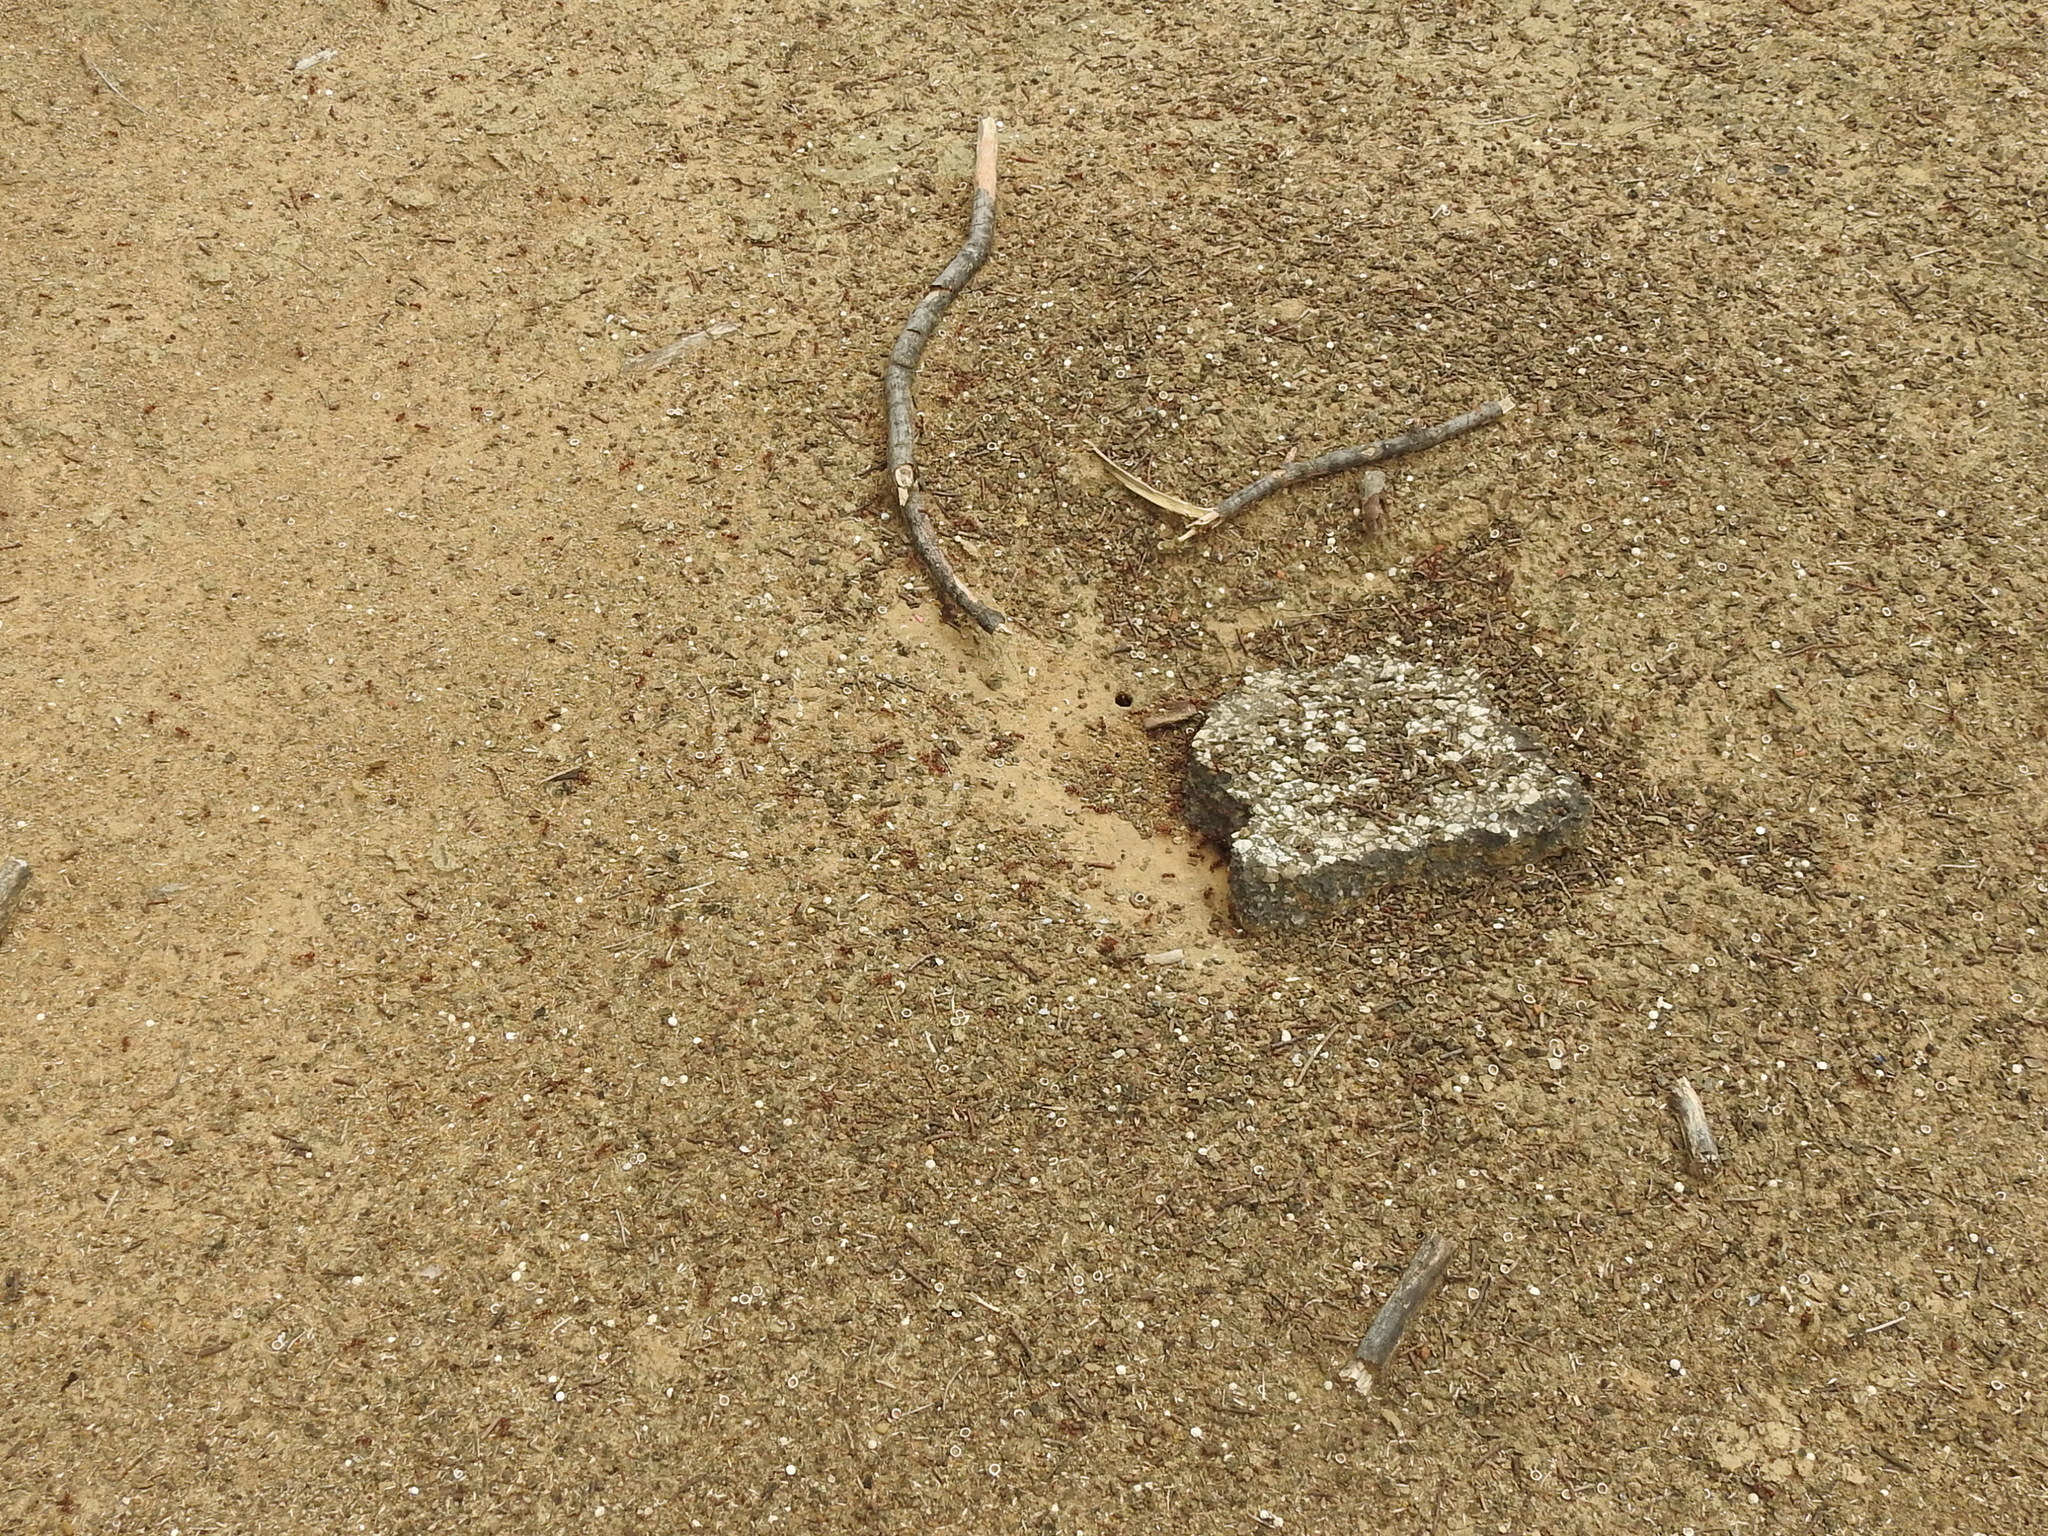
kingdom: Animalia
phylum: Arthropoda
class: Insecta
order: Hymenoptera
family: Formicidae
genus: Pogonomyrmex
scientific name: Pogonomyrmex barbatus
